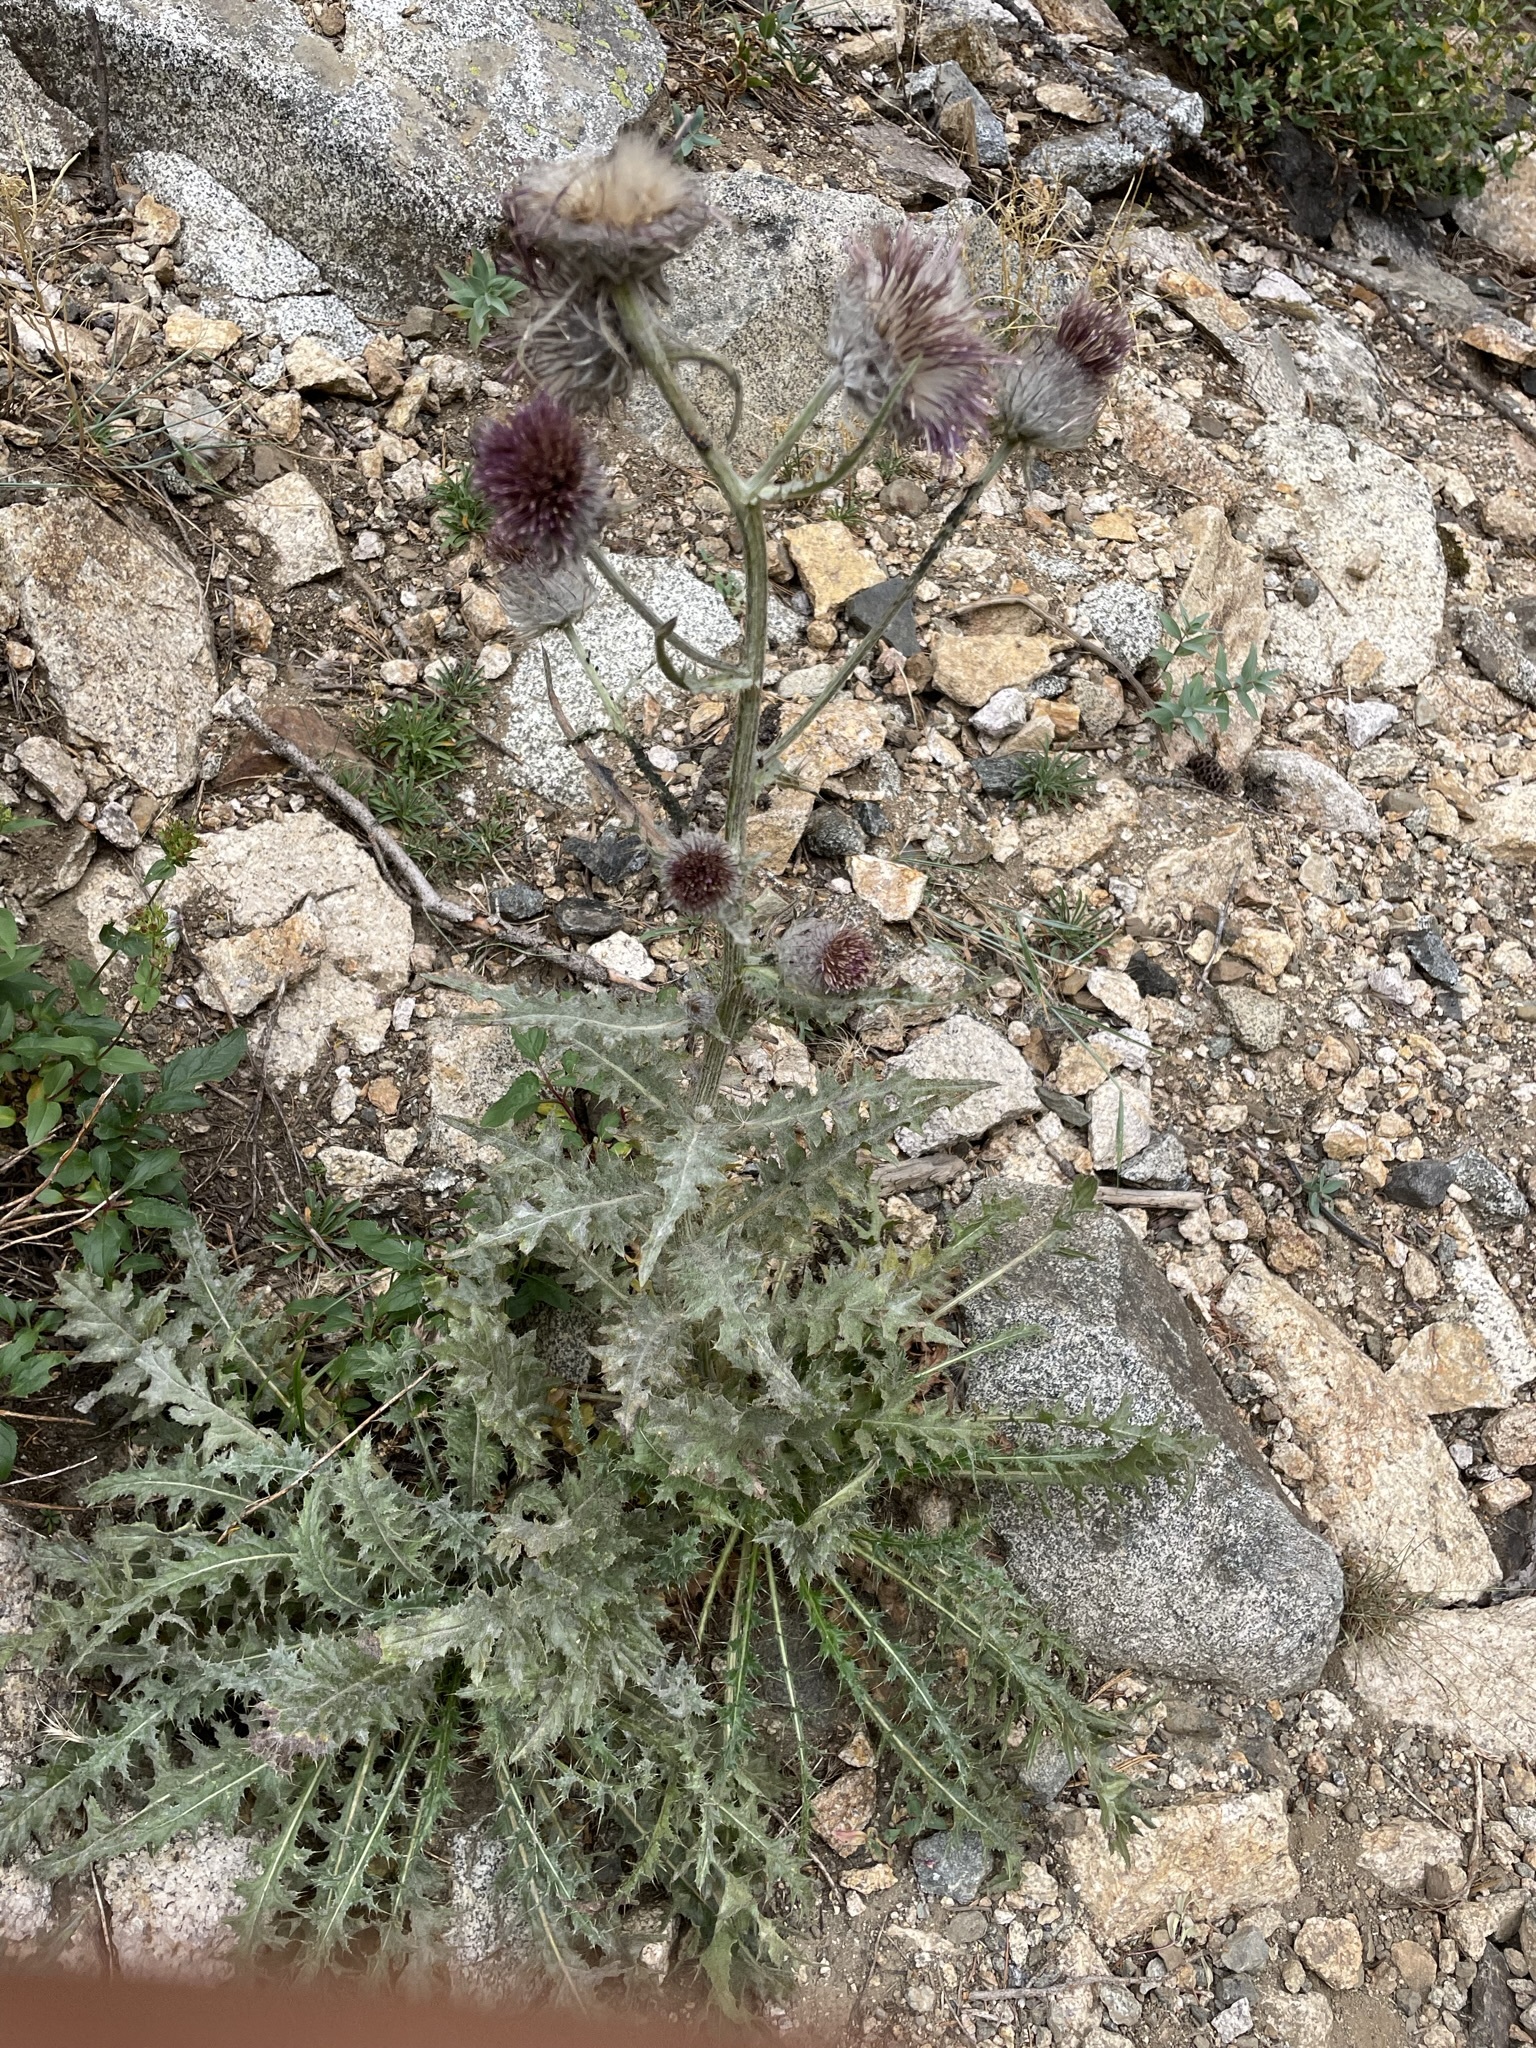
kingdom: Plantae
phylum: Tracheophyta
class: Magnoliopsida
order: Asterales
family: Asteraceae
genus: Cirsium
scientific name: Cirsium edule
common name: Indian thistle
